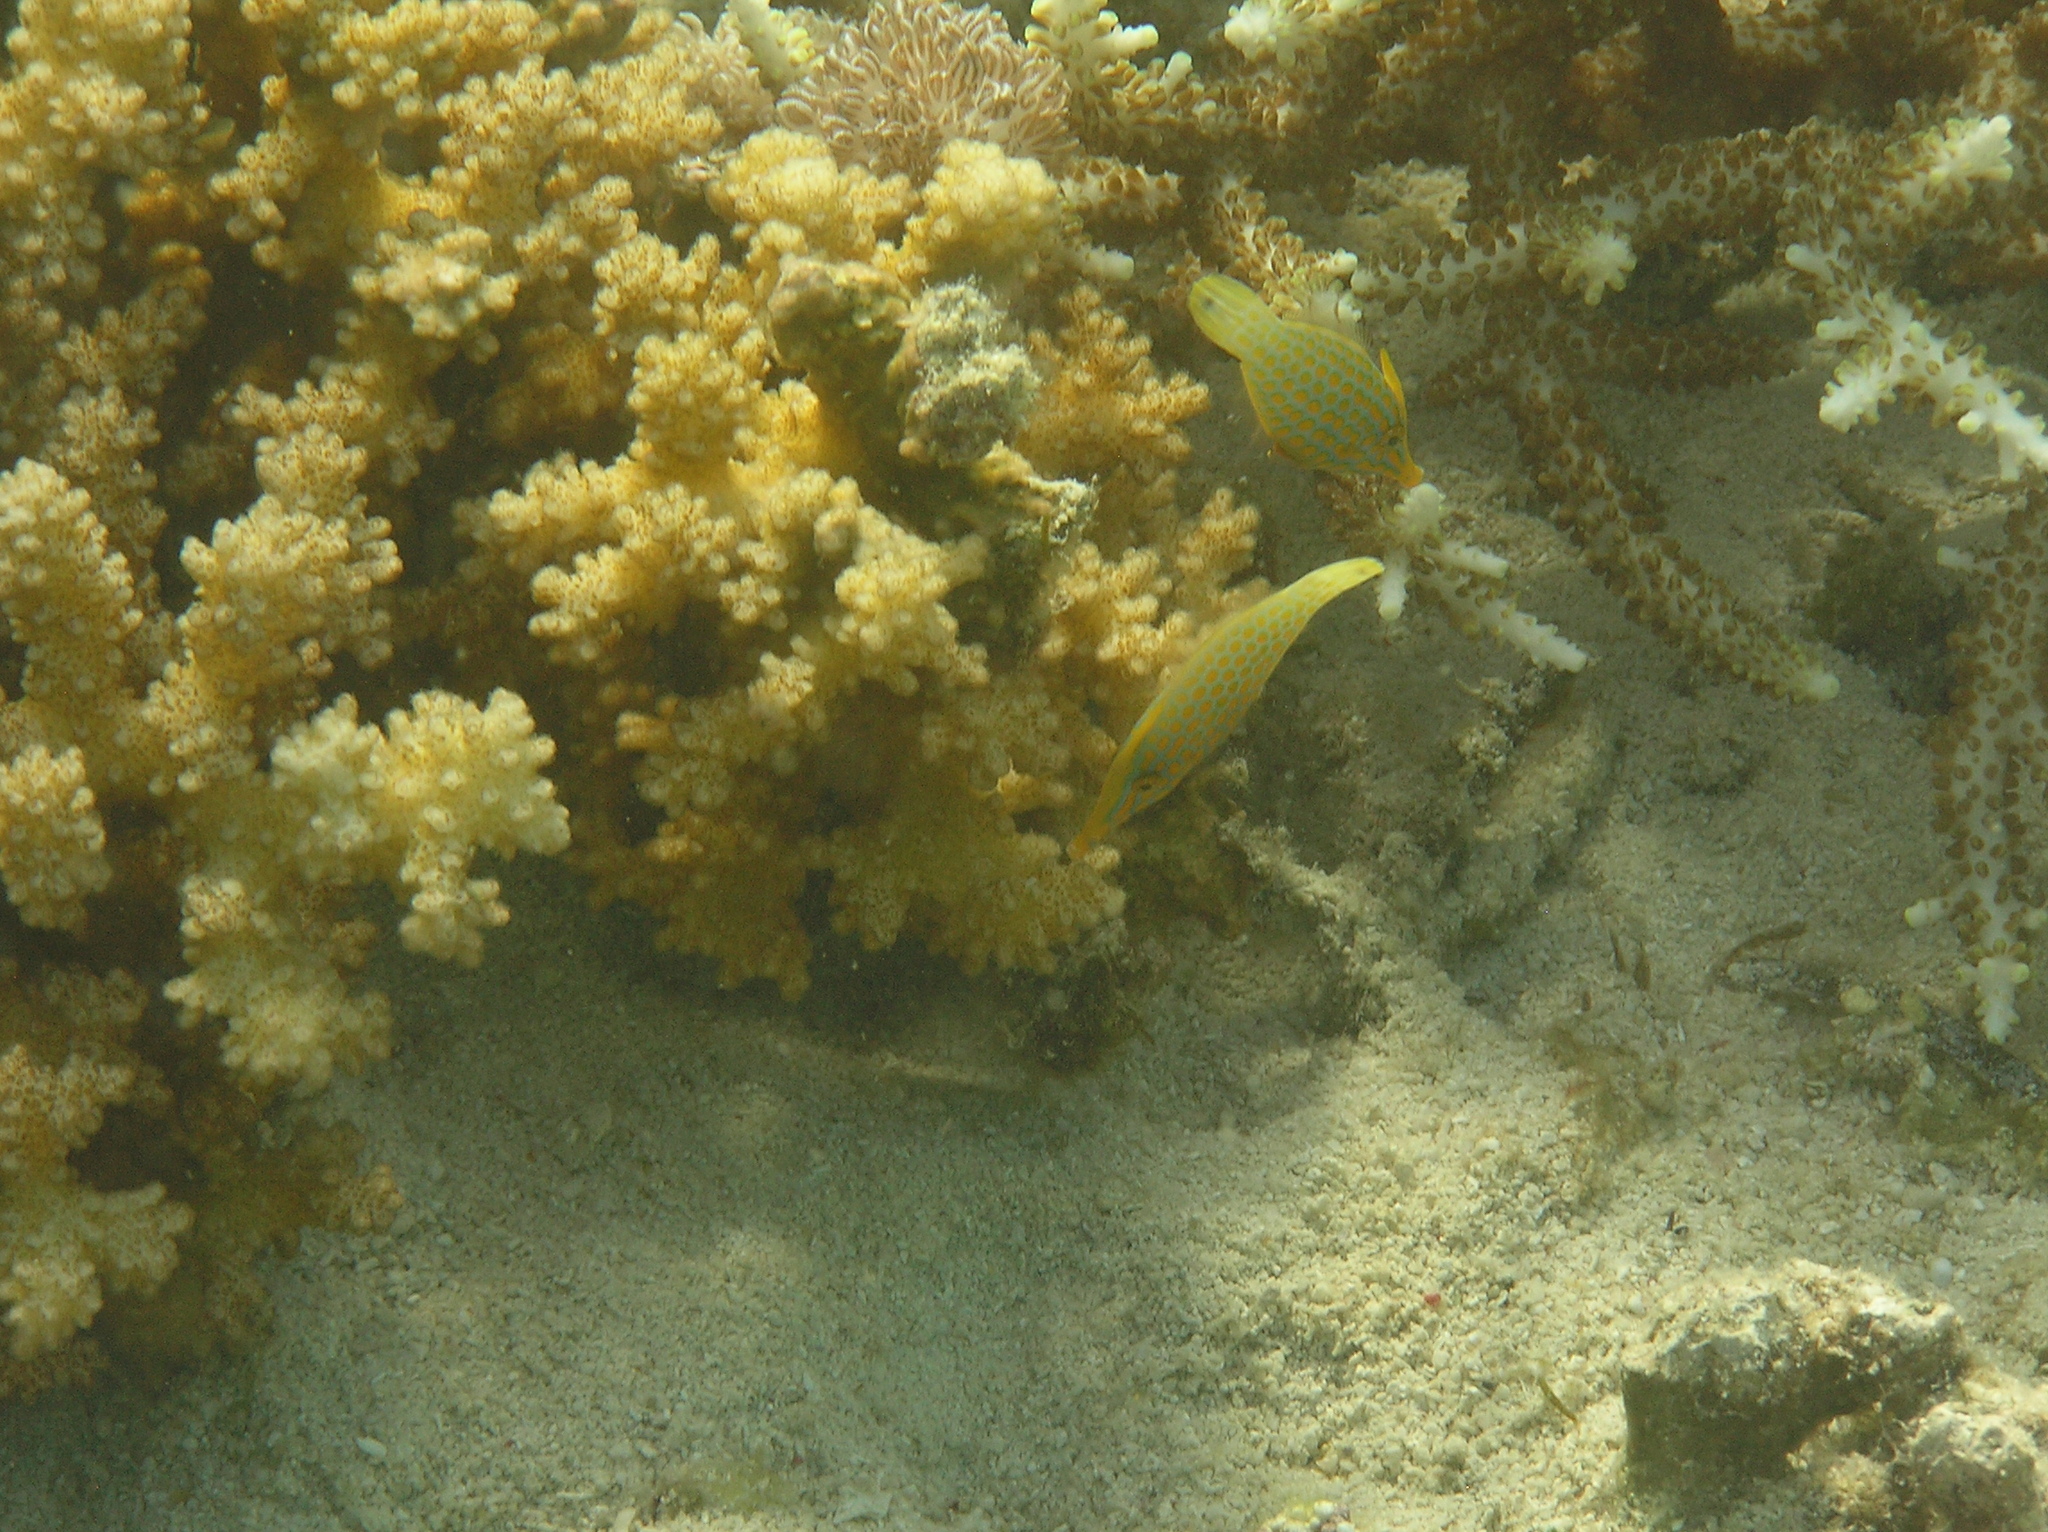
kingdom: Animalia
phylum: Chordata
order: Tetraodontiformes
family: Monacanthidae
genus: Oxymonacanthus
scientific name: Oxymonacanthus longirostris
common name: Beaked leatherjacket
